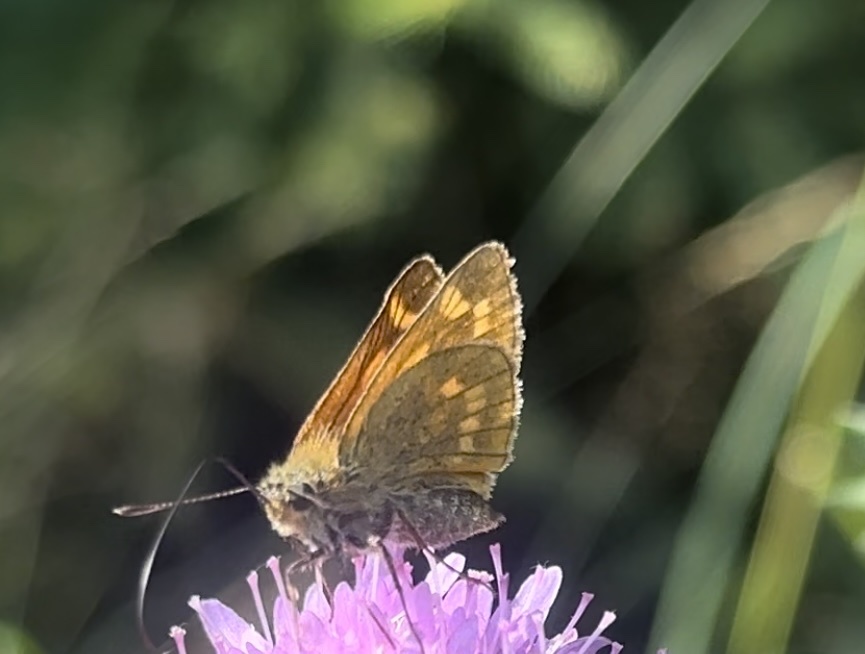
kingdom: Animalia
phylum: Arthropoda
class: Insecta
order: Lepidoptera
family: Hesperiidae
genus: Ochlodes
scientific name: Ochlodes venata
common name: Large skipper
